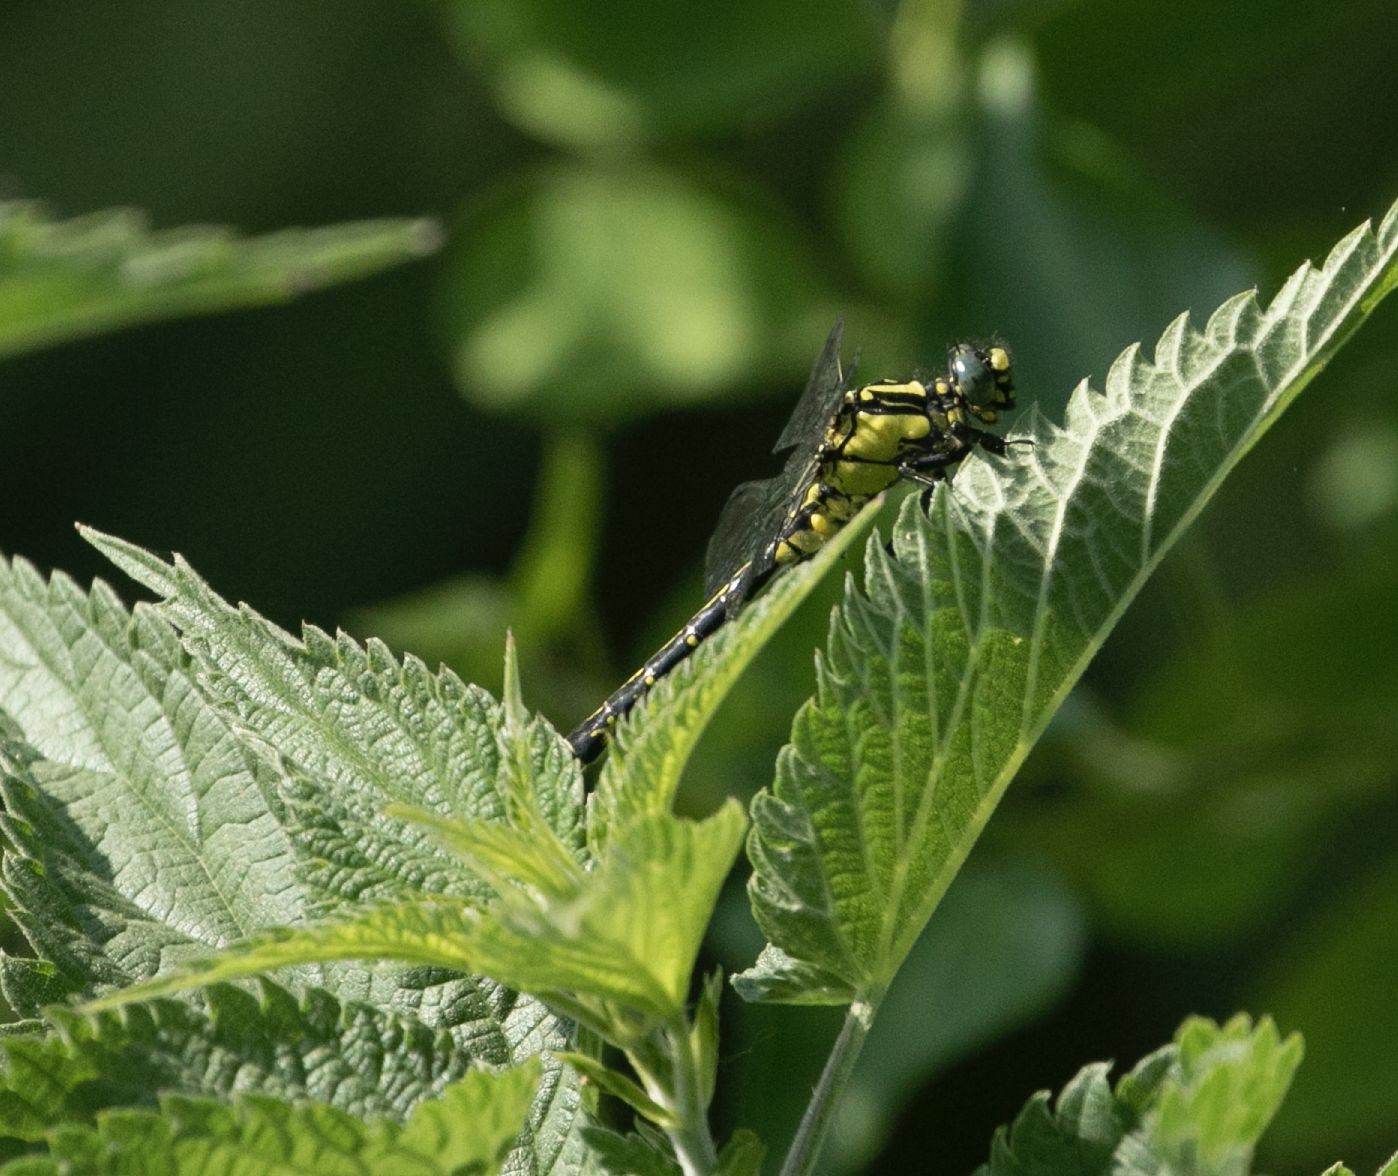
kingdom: Animalia
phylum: Arthropoda
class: Insecta
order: Odonata
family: Gomphidae
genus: Gomphus
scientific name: Gomphus vulgatissimus
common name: Club-tailed dragonfly
